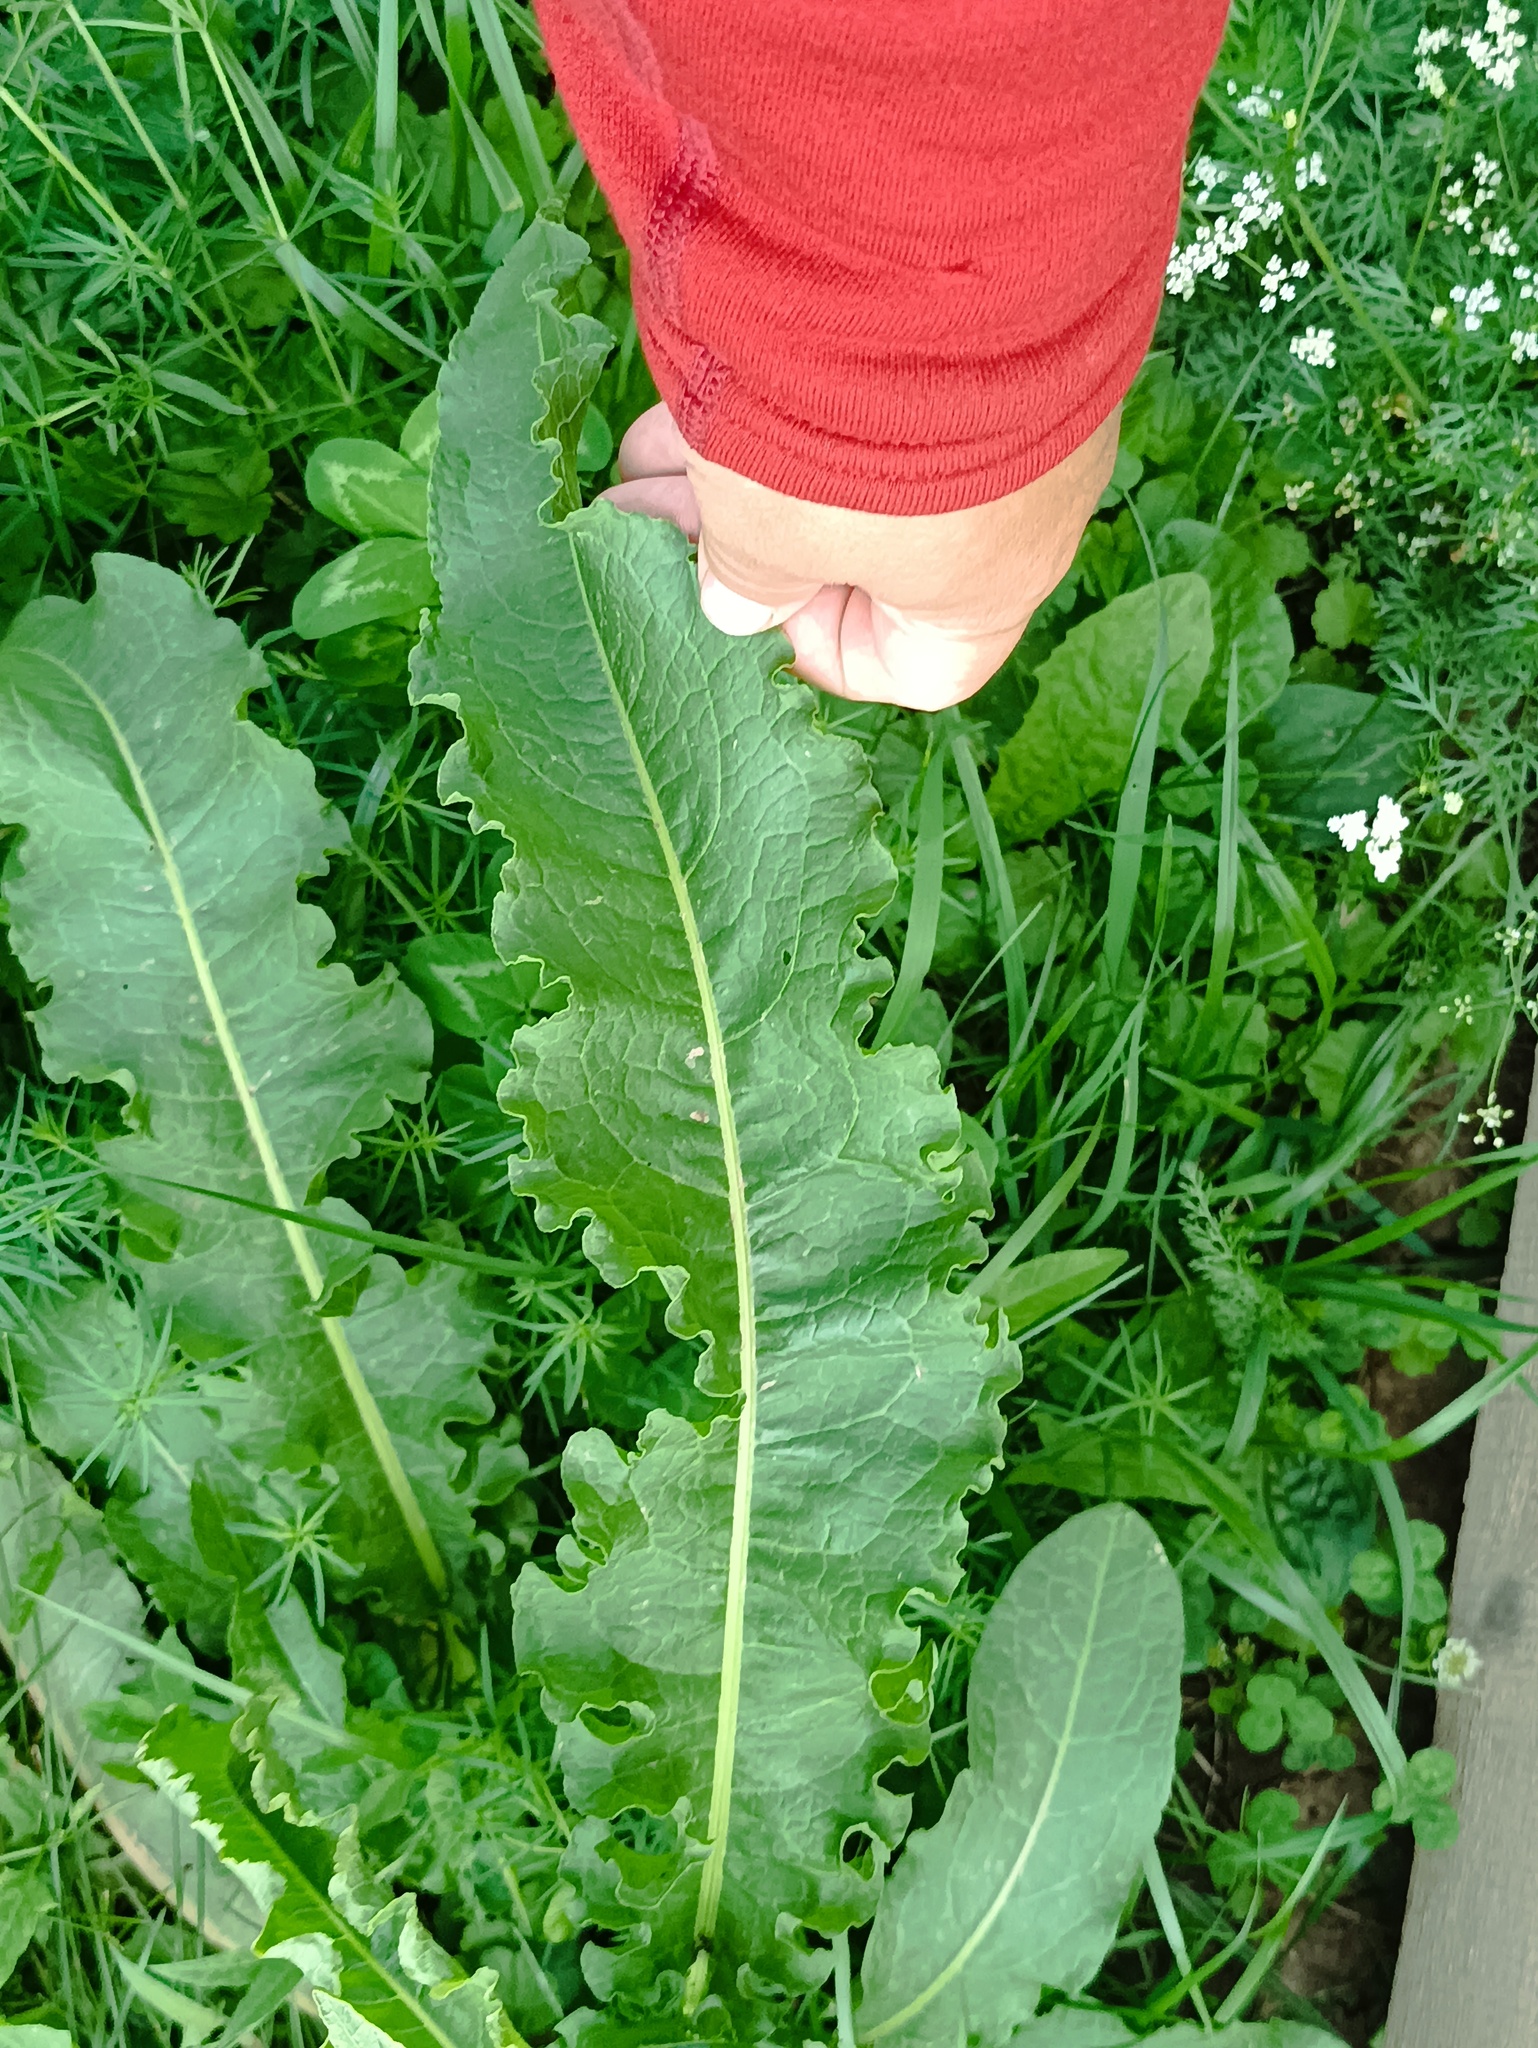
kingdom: Plantae
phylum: Tracheophyta
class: Magnoliopsida
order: Caryophyllales
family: Polygonaceae
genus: Rumex
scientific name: Rumex crispus
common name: Curled dock
